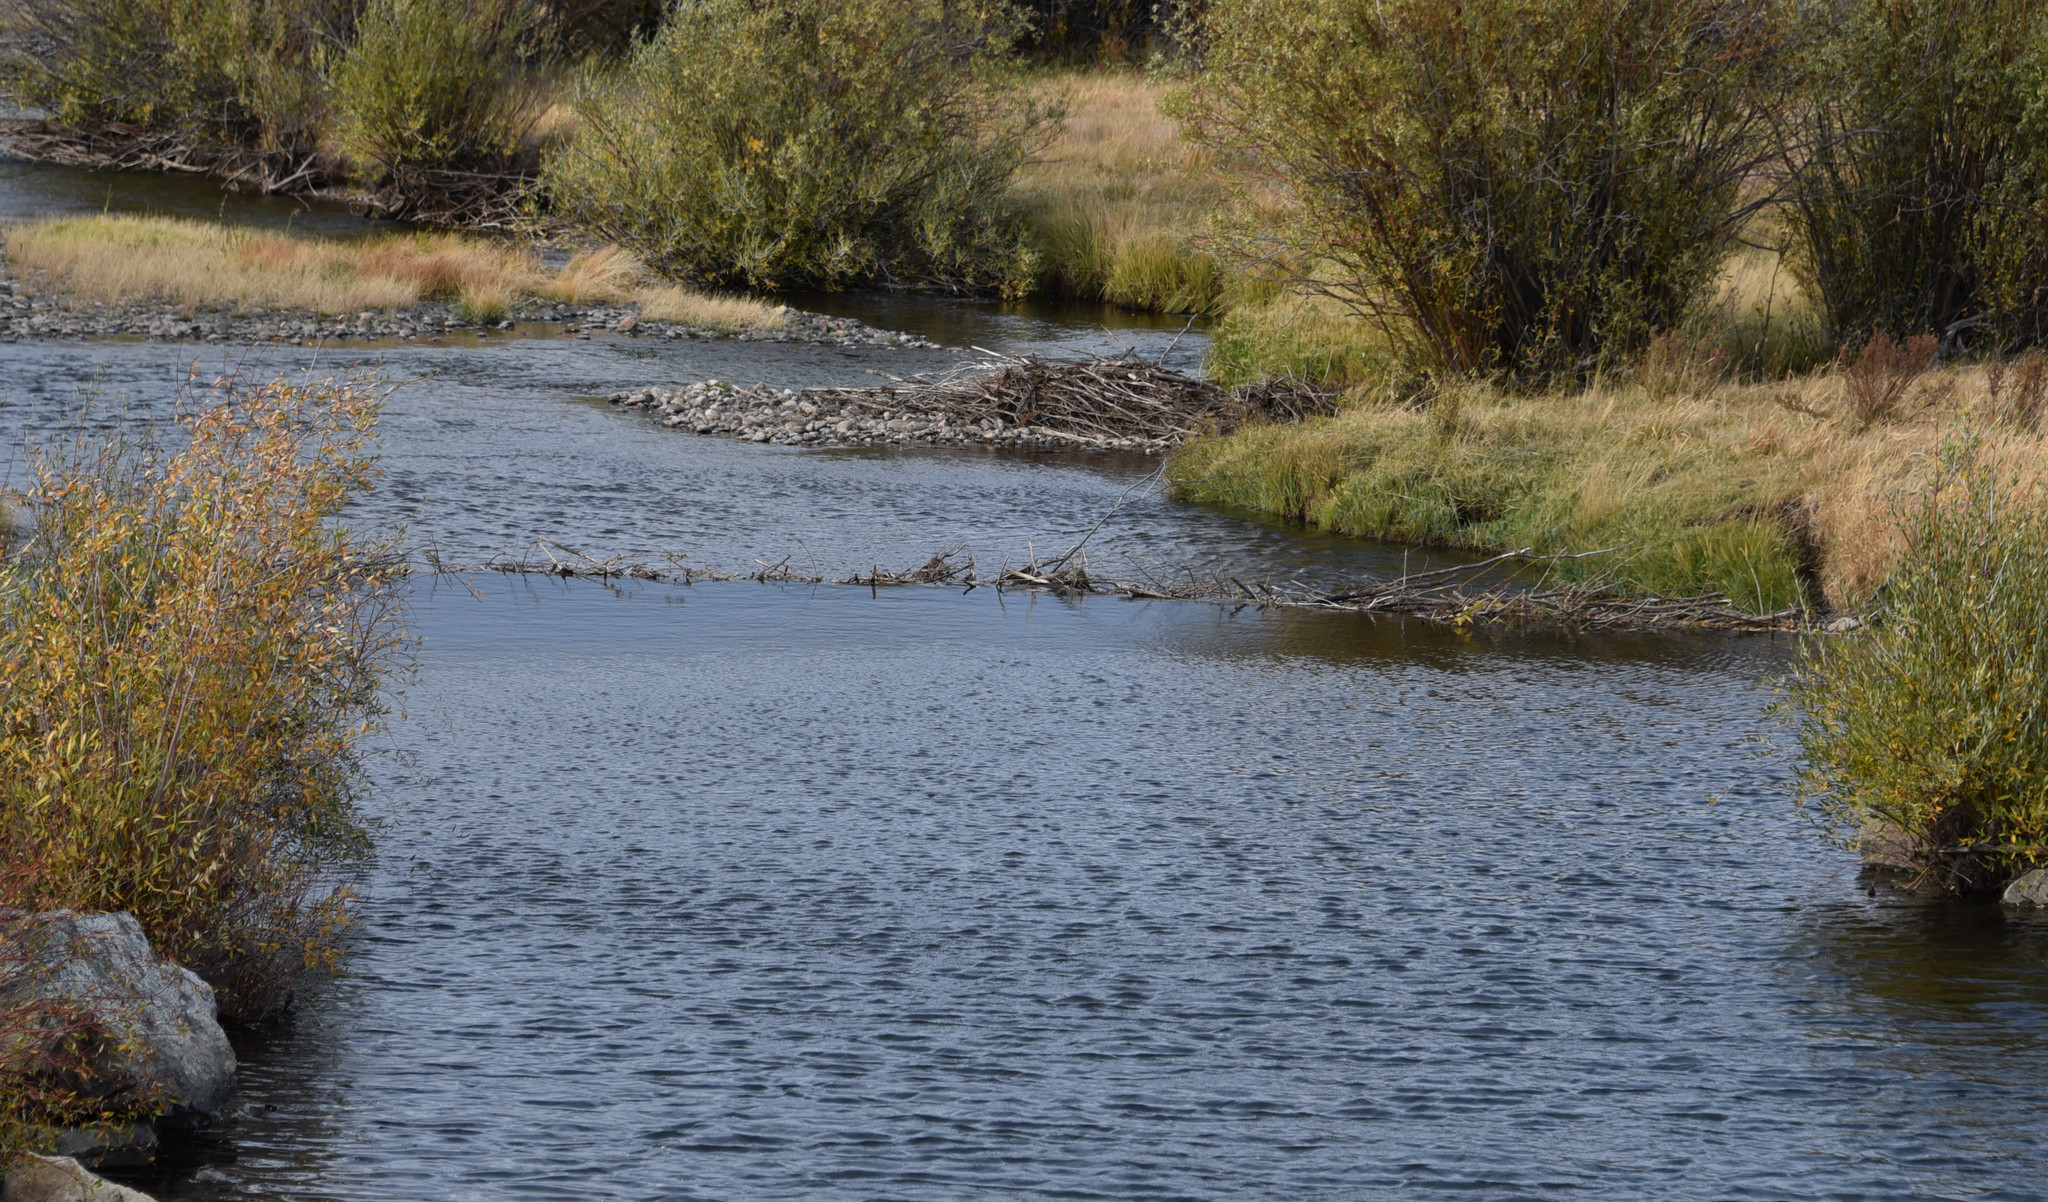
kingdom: Animalia
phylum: Chordata
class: Mammalia
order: Rodentia
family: Castoridae
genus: Castor
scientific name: Castor canadensis
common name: American beaver
